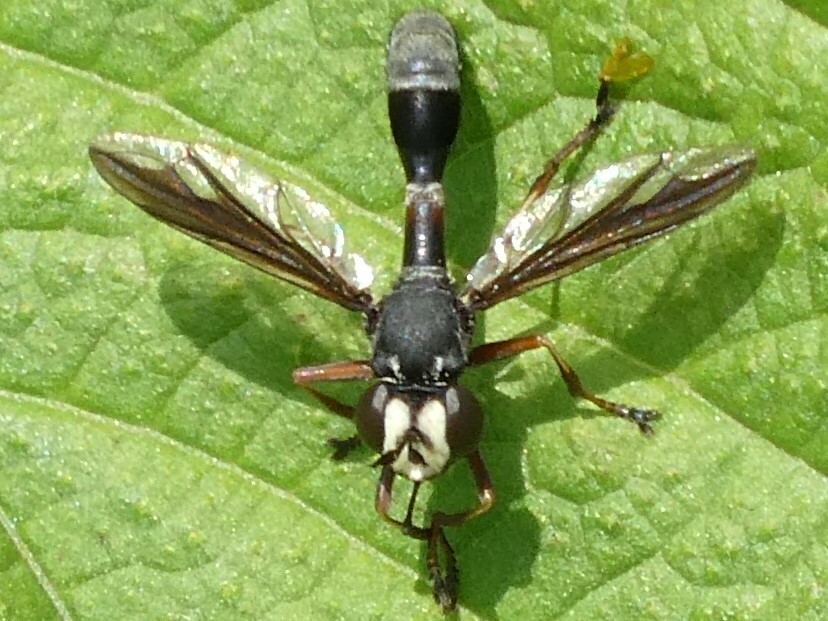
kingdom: Animalia
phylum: Arthropoda
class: Insecta
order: Diptera
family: Conopidae
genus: Physocephala
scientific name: Physocephala furcillata
